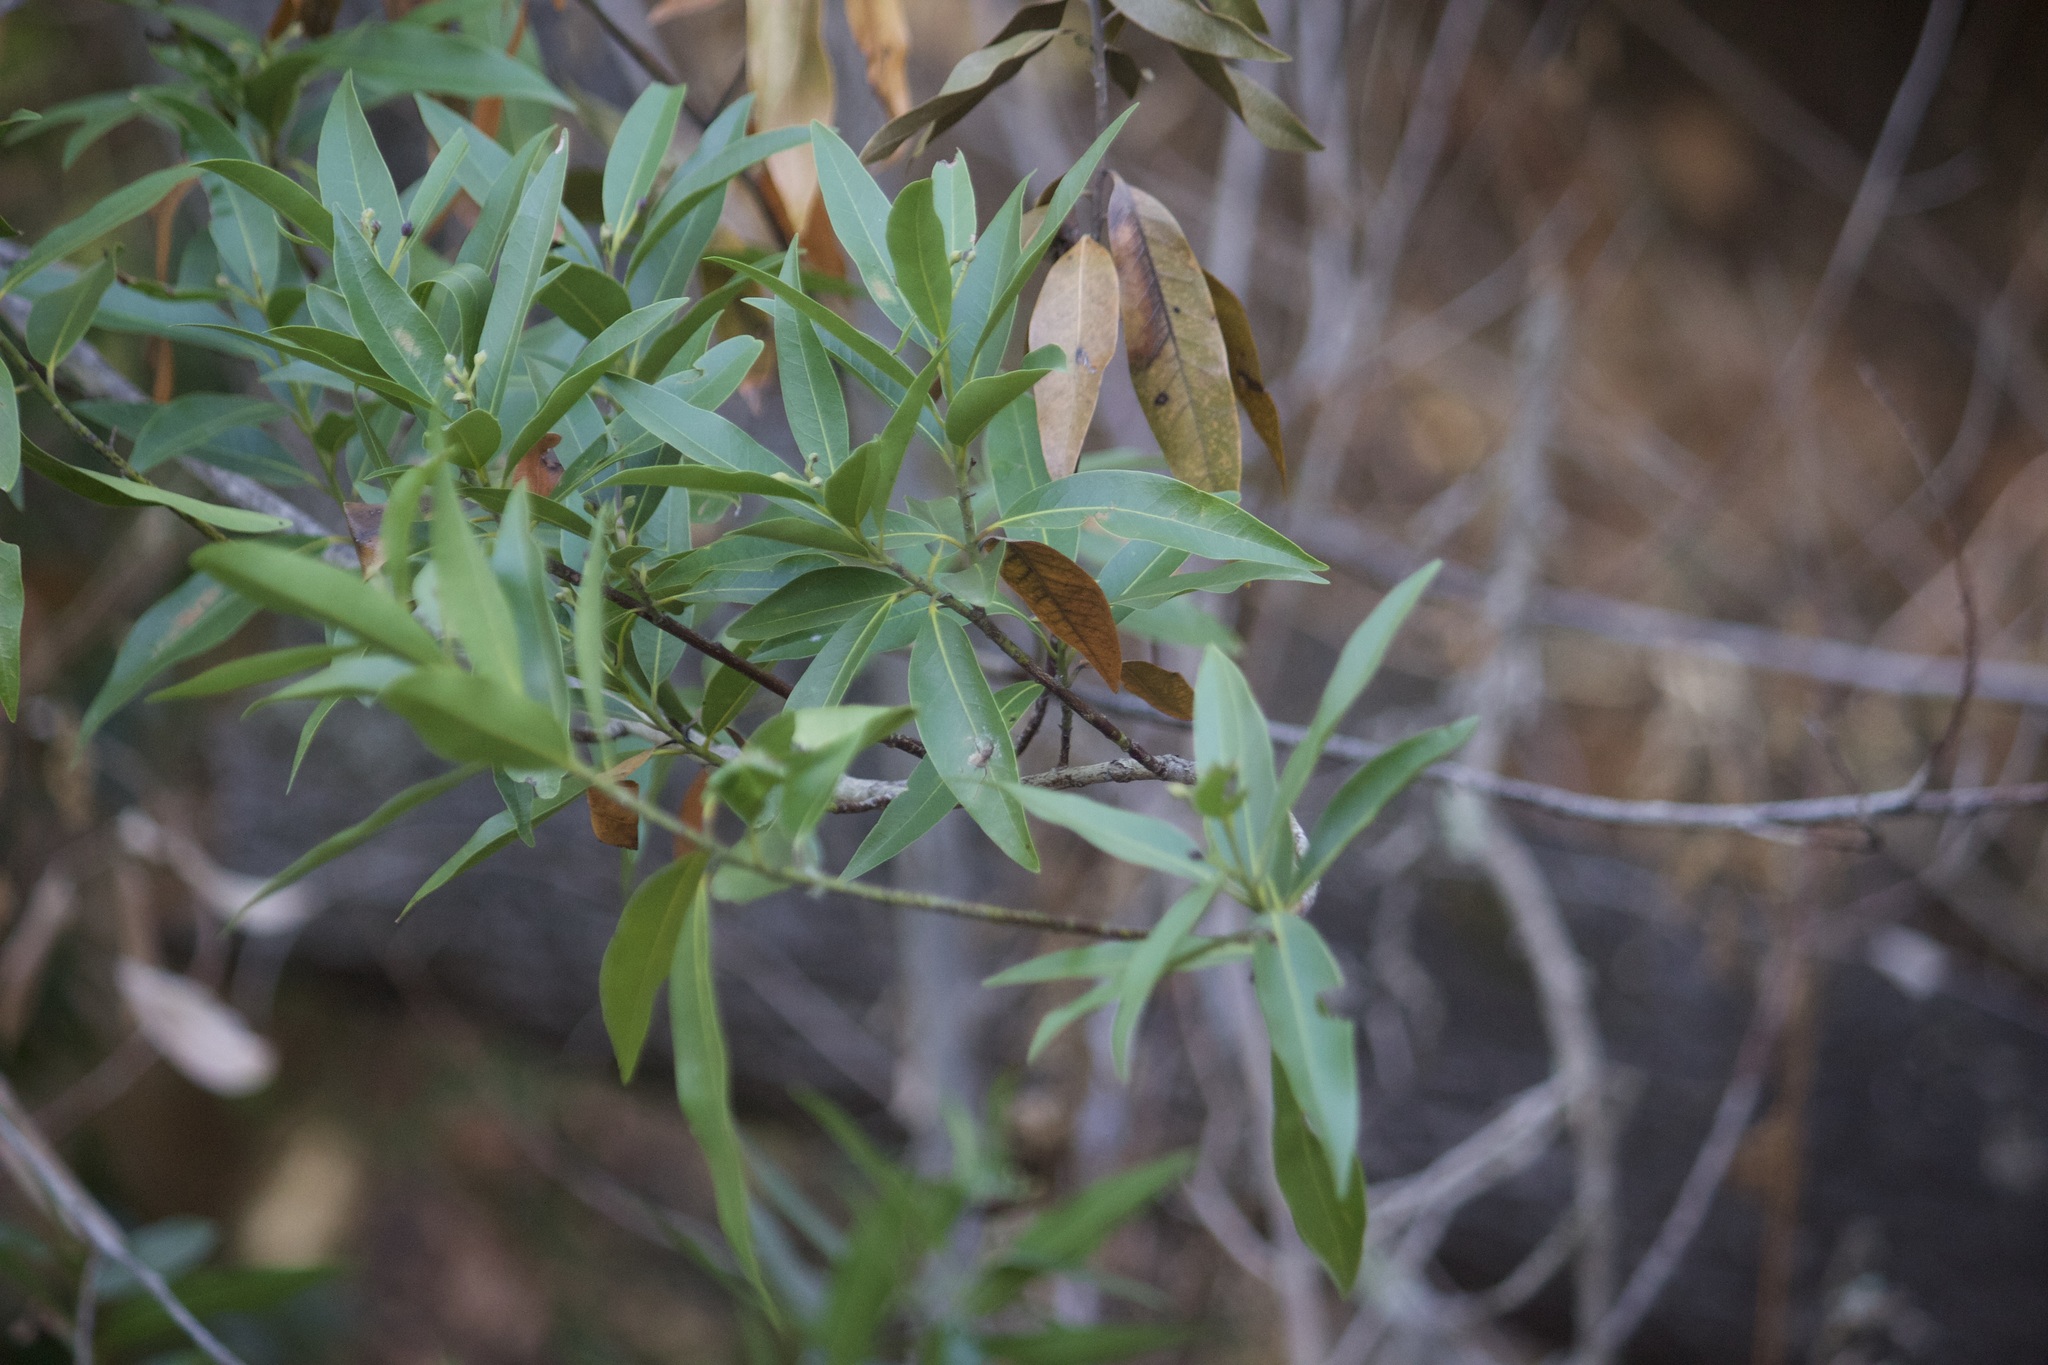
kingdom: Plantae
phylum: Tracheophyta
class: Magnoliopsida
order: Laurales
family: Lauraceae
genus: Umbellularia
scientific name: Umbellularia californica
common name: California bay
